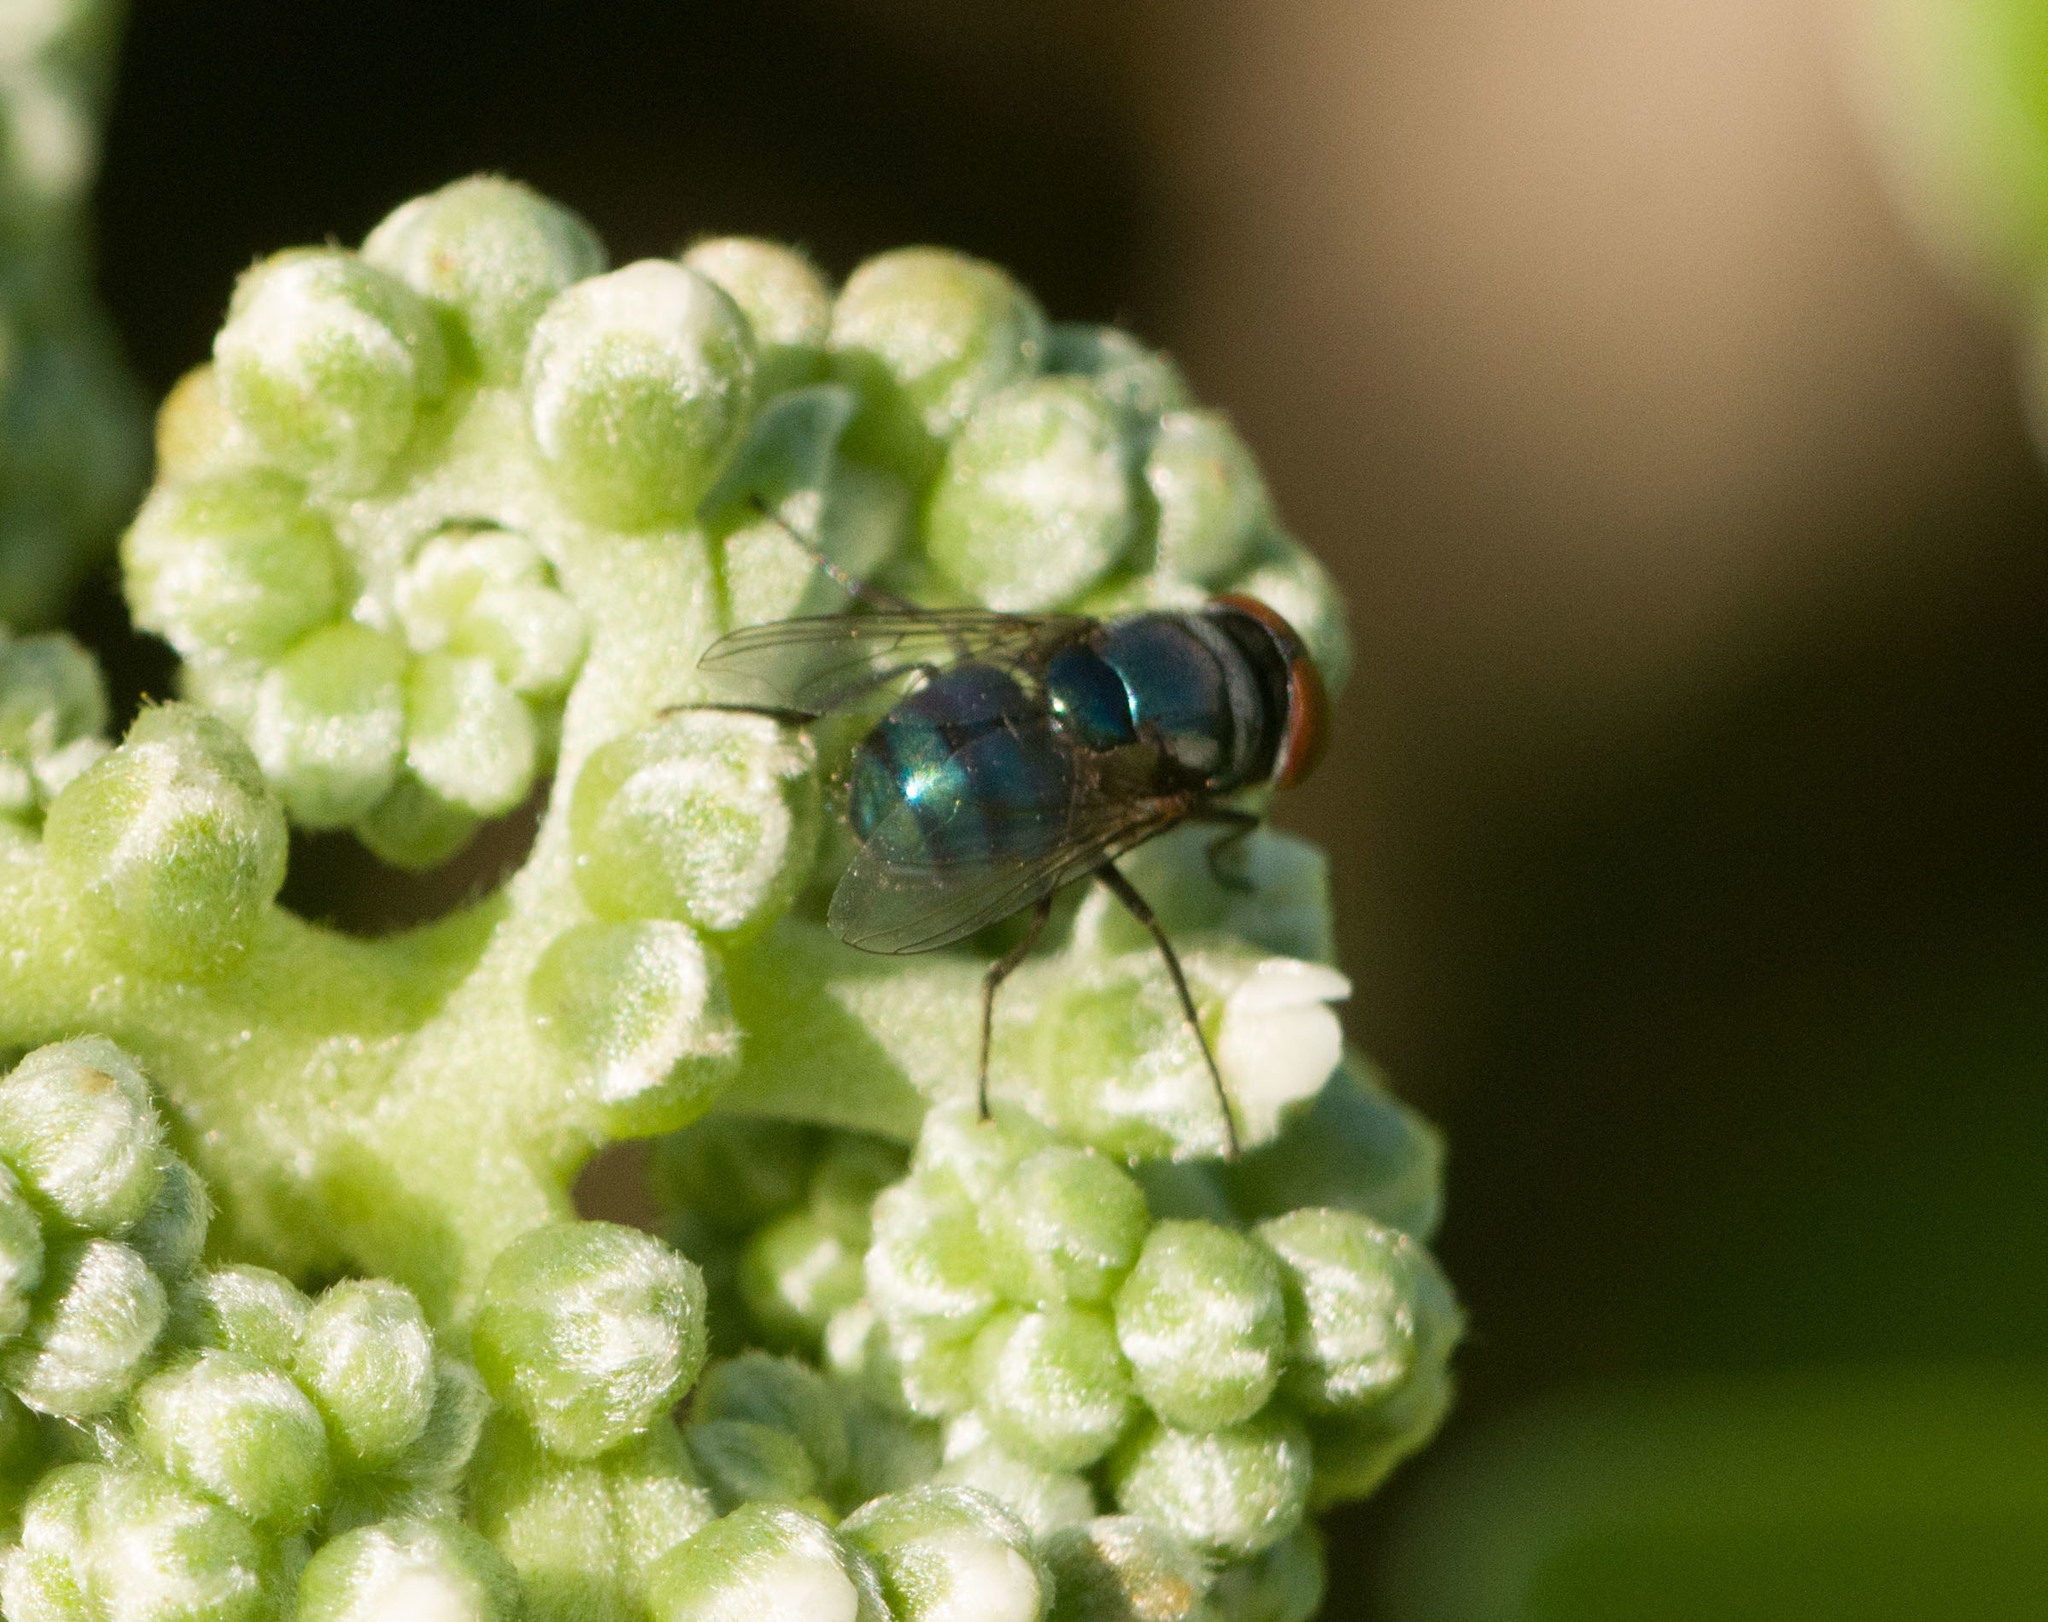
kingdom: Animalia
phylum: Arthropoda
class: Insecta
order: Diptera
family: Calliphoridae
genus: Chrysomya
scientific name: Chrysomya megacephala
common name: Blow fly
